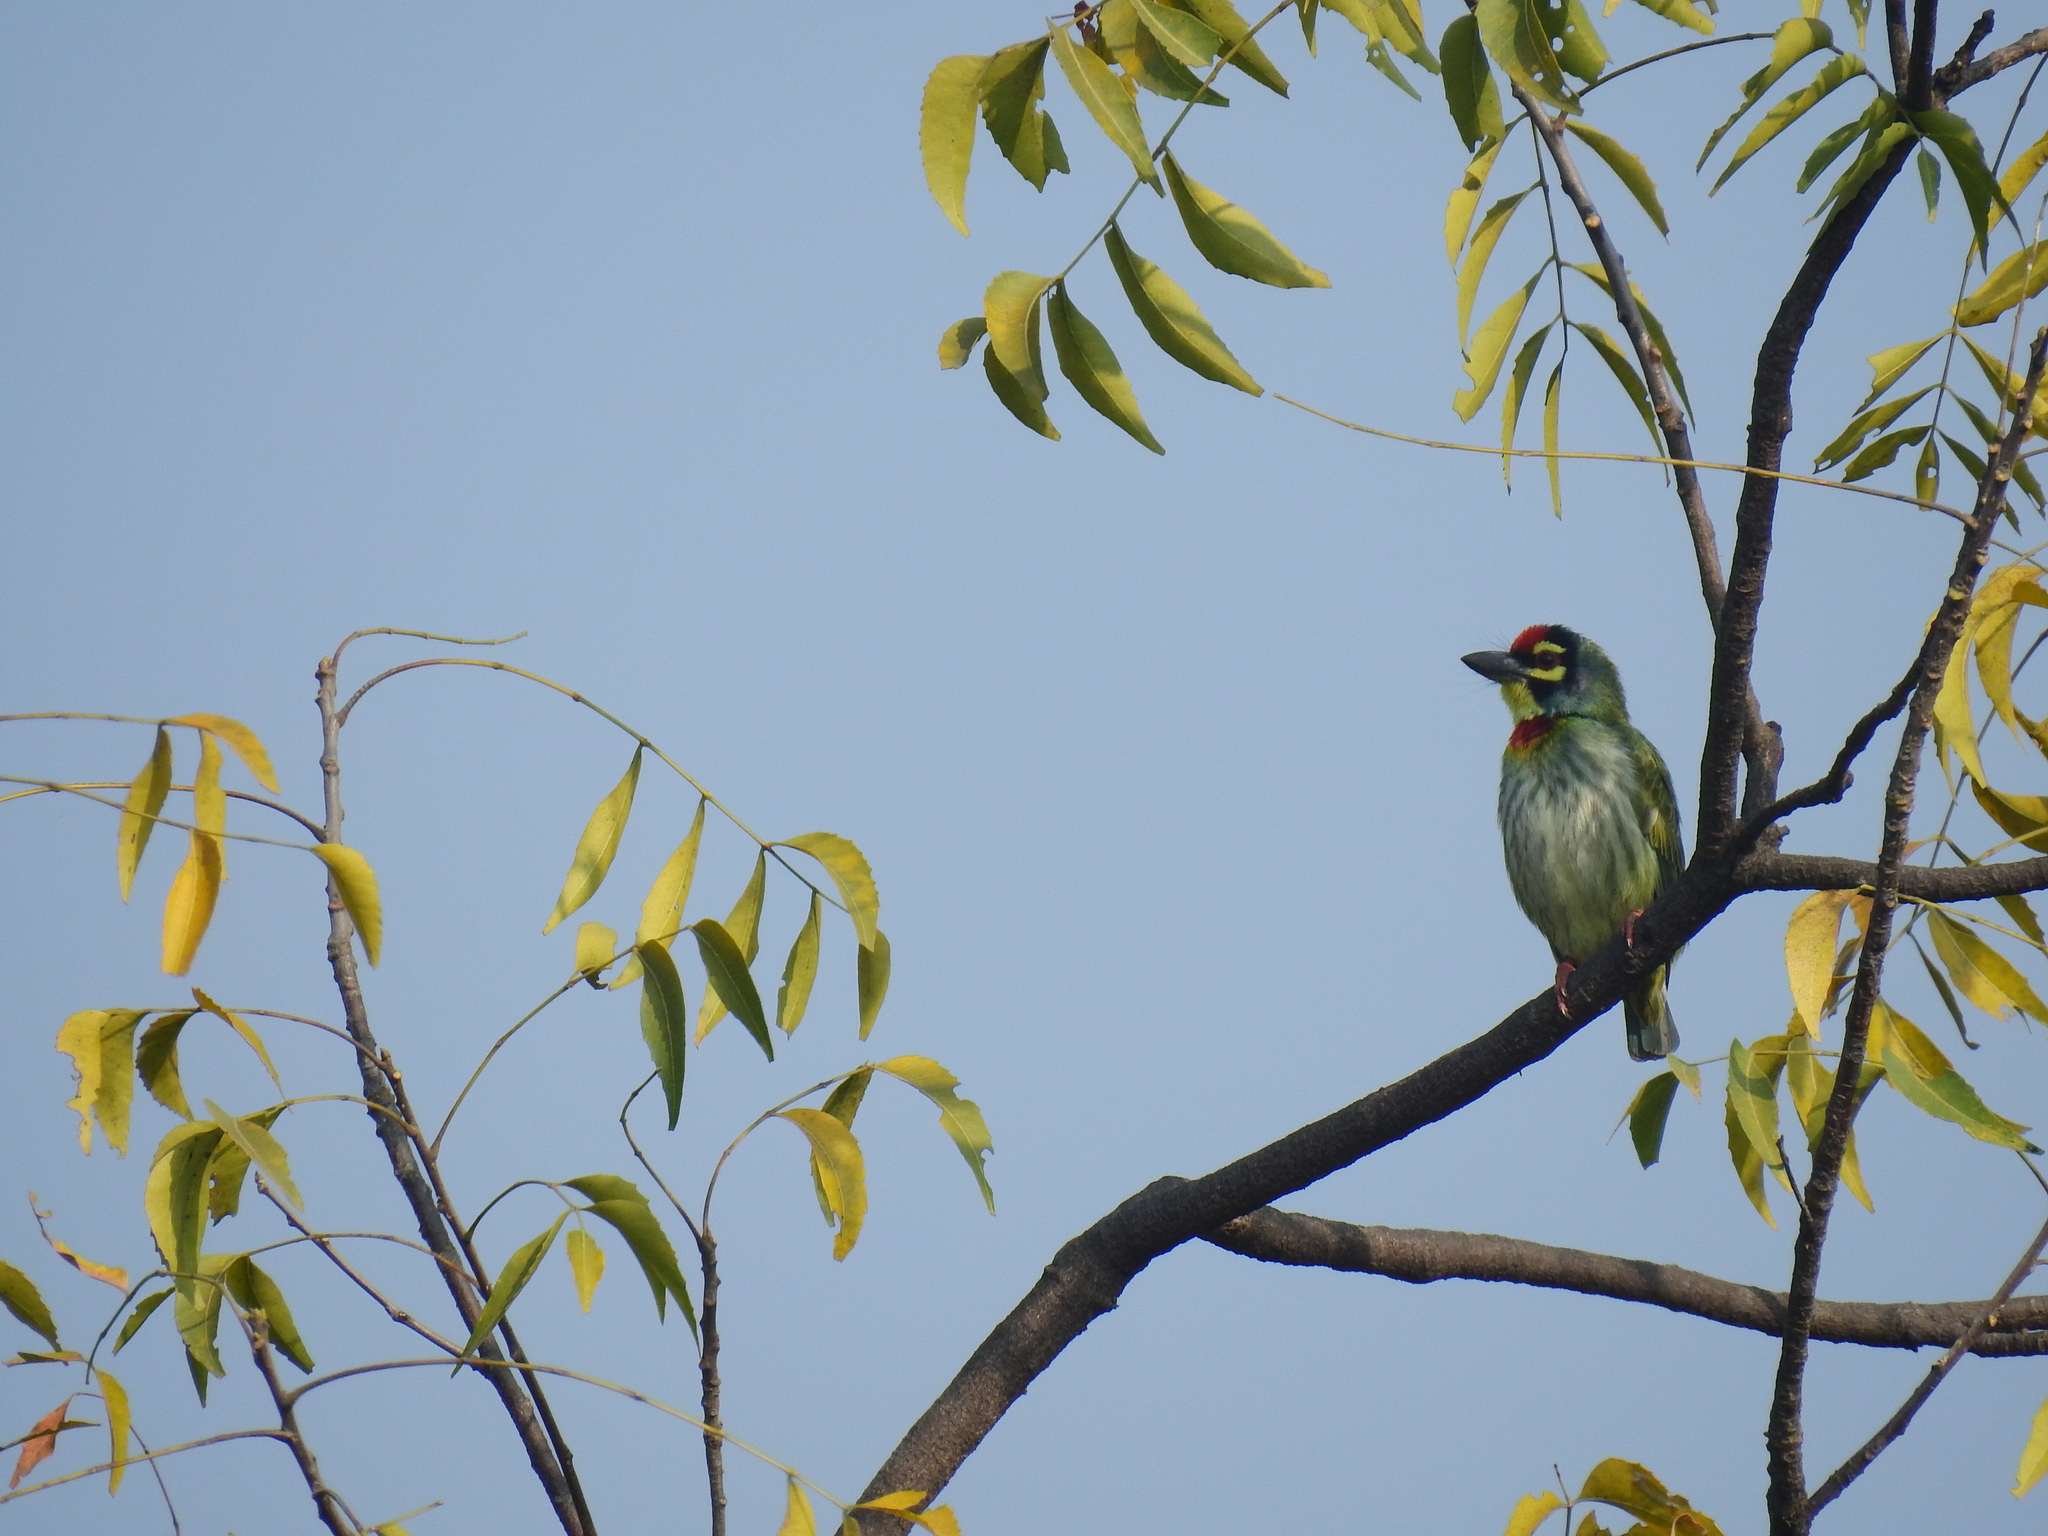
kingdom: Animalia
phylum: Chordata
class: Aves
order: Piciformes
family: Megalaimidae
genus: Psilopogon
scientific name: Psilopogon haemacephalus
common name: Coppersmith barbet
